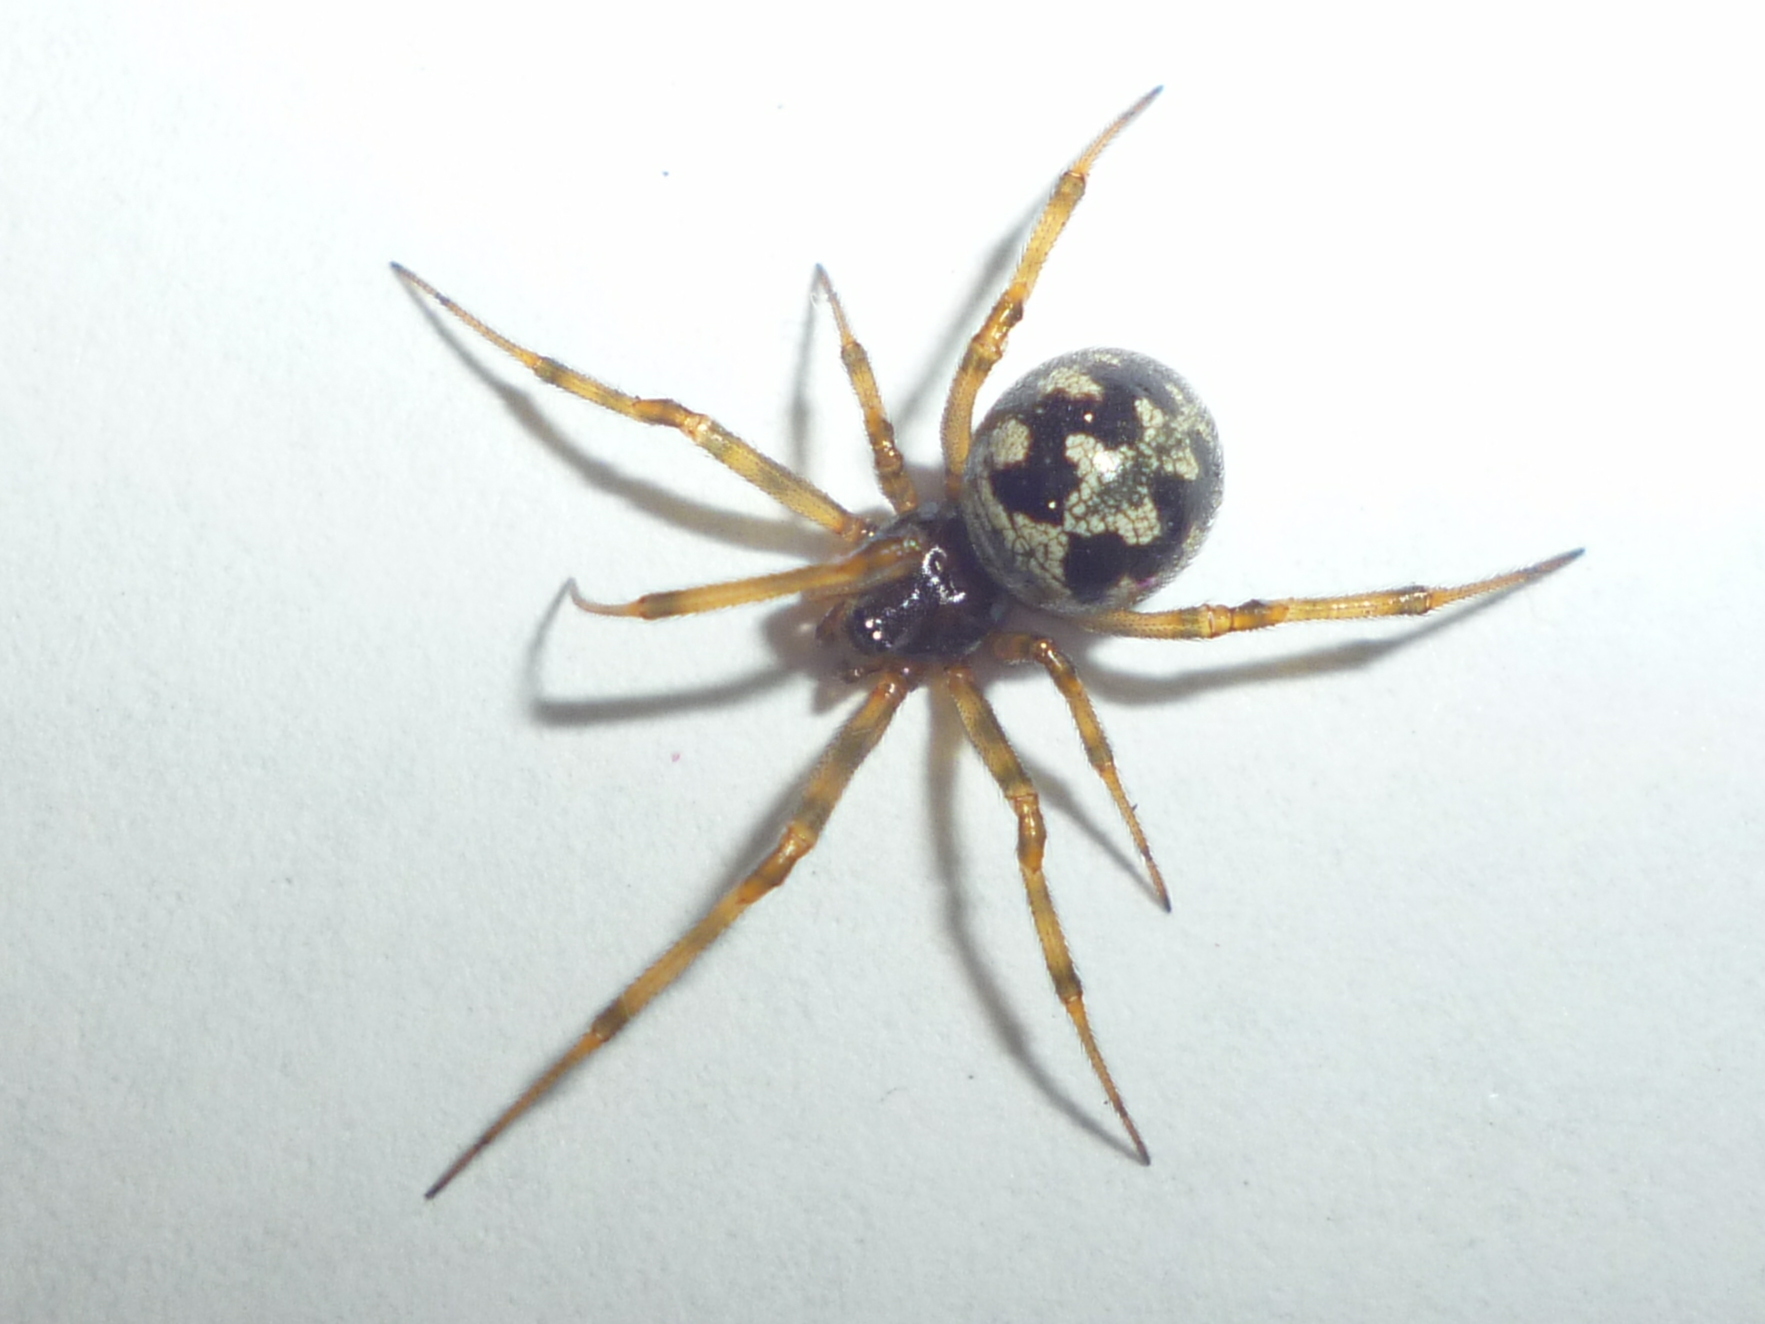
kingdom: Animalia
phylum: Arthropoda
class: Arachnida
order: Araneae
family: Theridiidae
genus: Steatoda
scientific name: Steatoda triangulosa
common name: Triangulate bud spider
